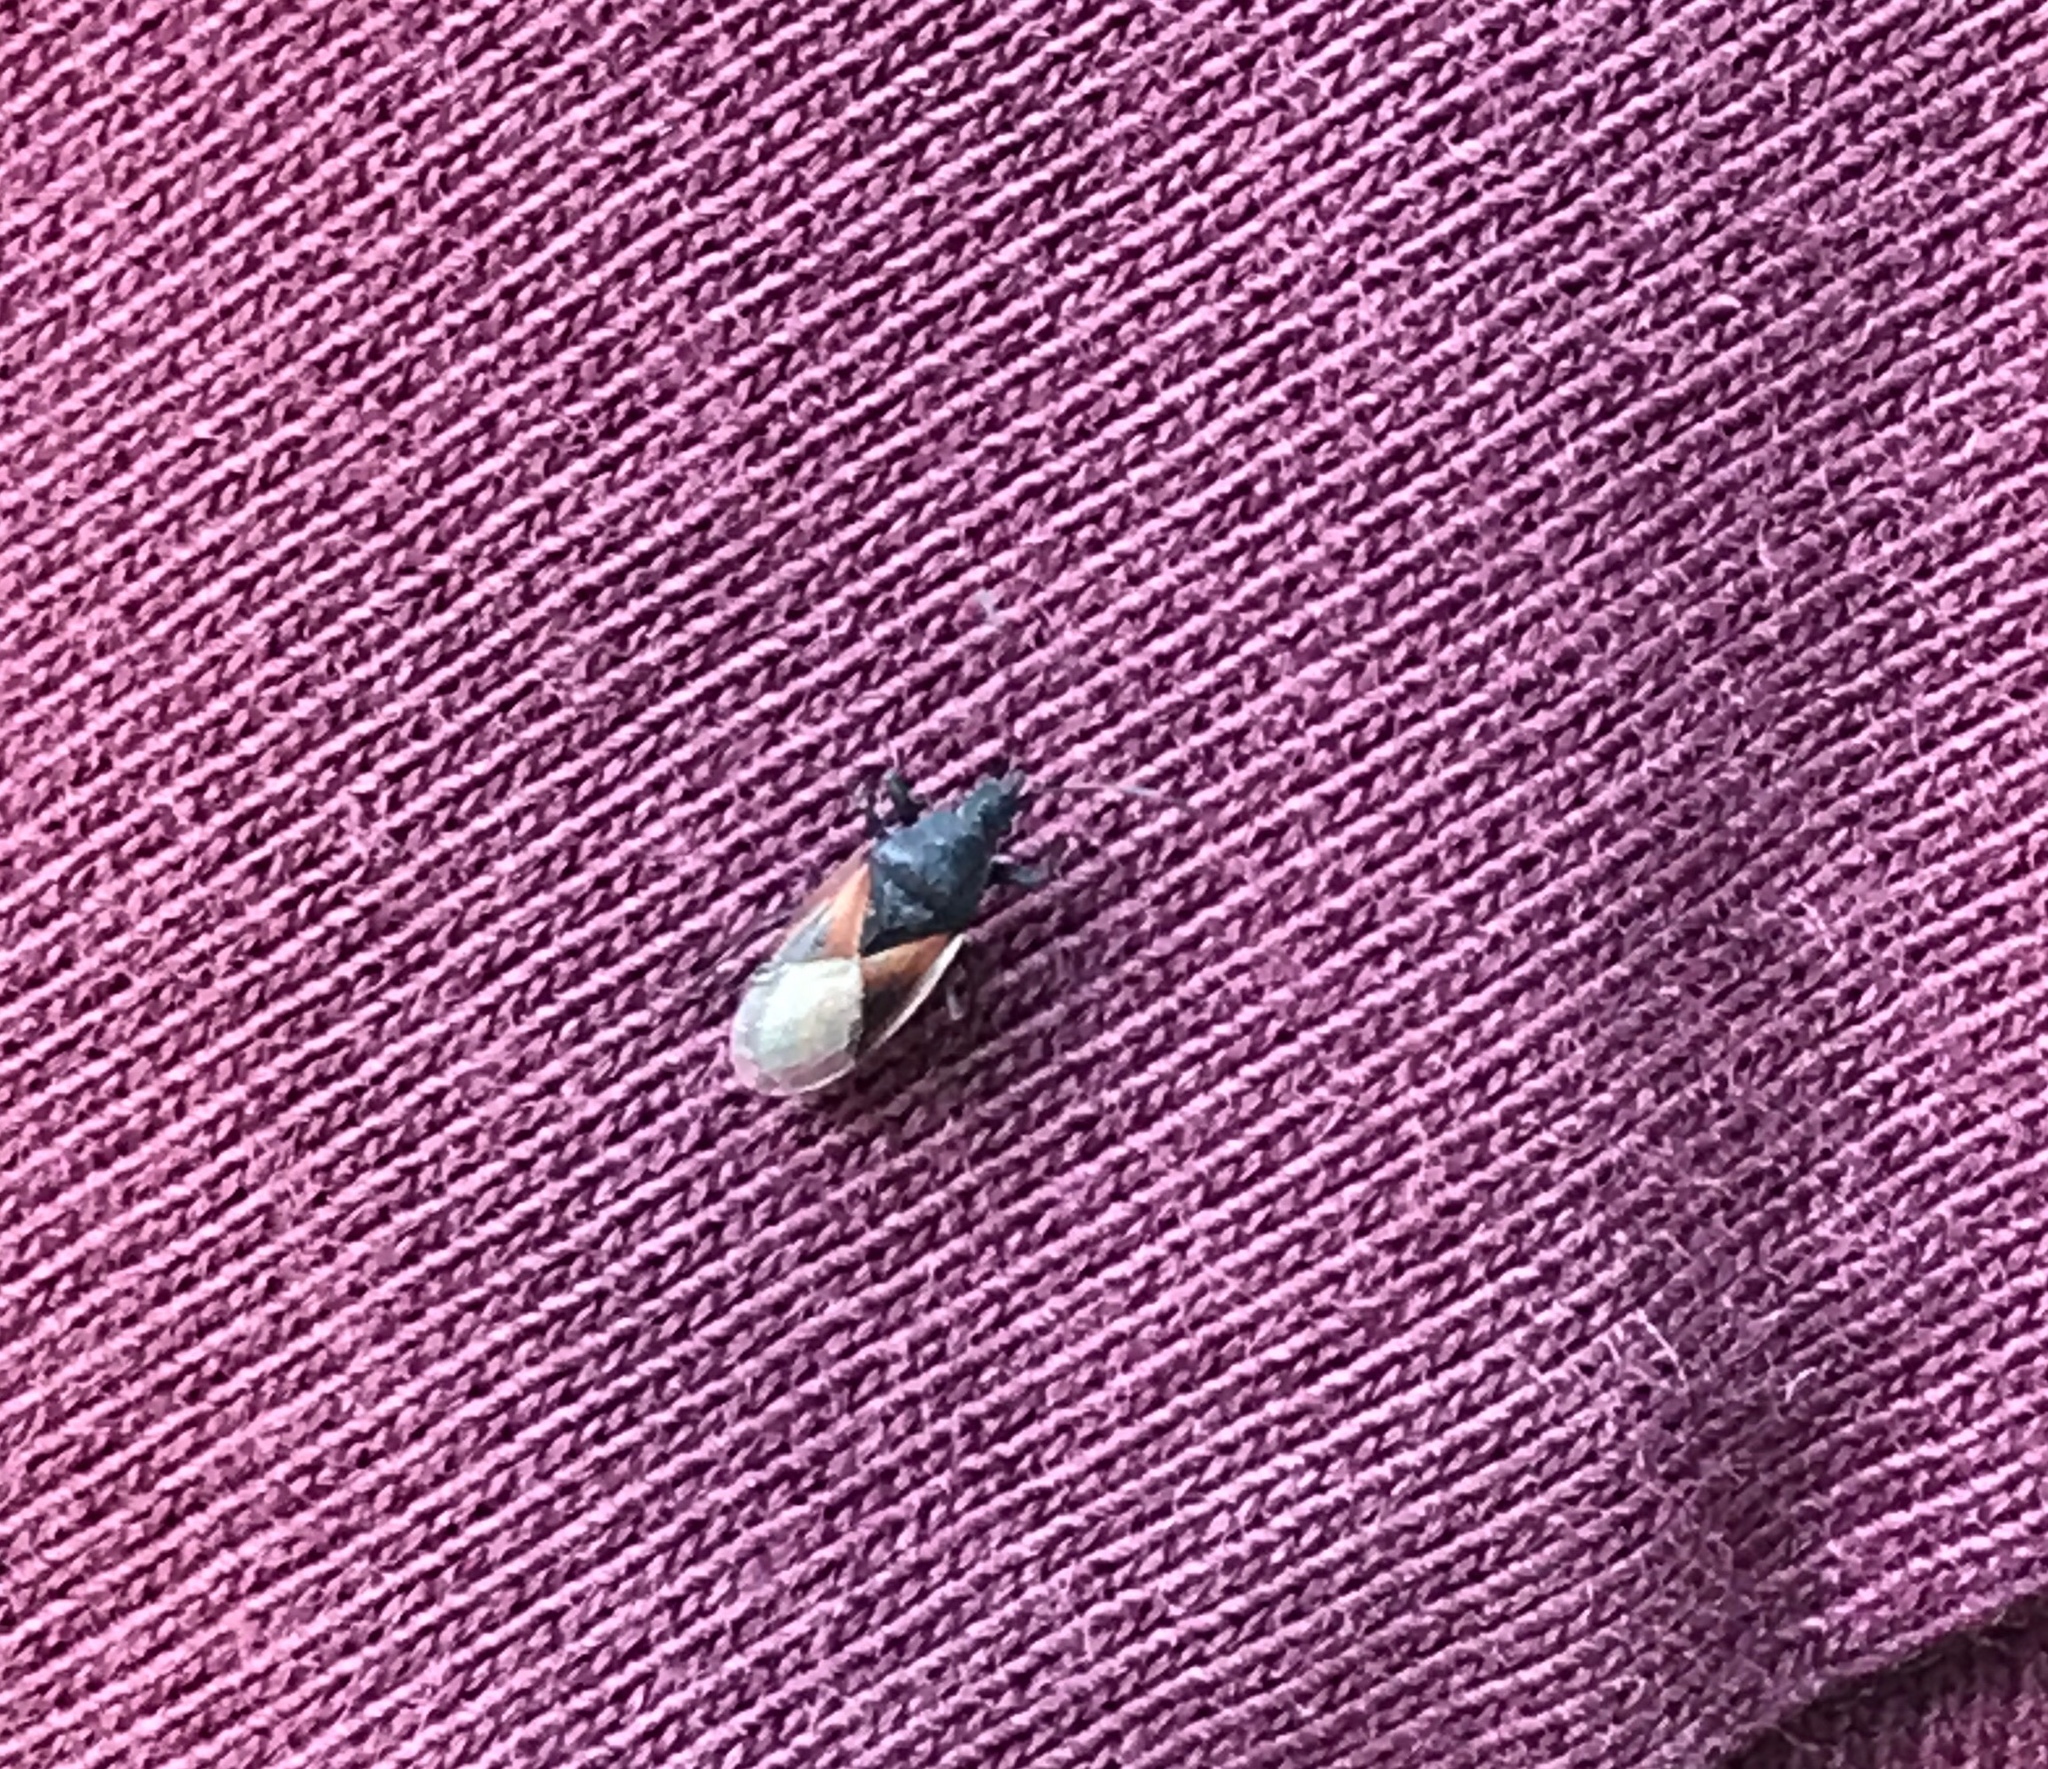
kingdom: Animalia
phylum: Arthropoda
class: Insecta
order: Hemiptera
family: Oxycarenidae
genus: Oxycarenus
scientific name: Oxycarenus lavaterae
